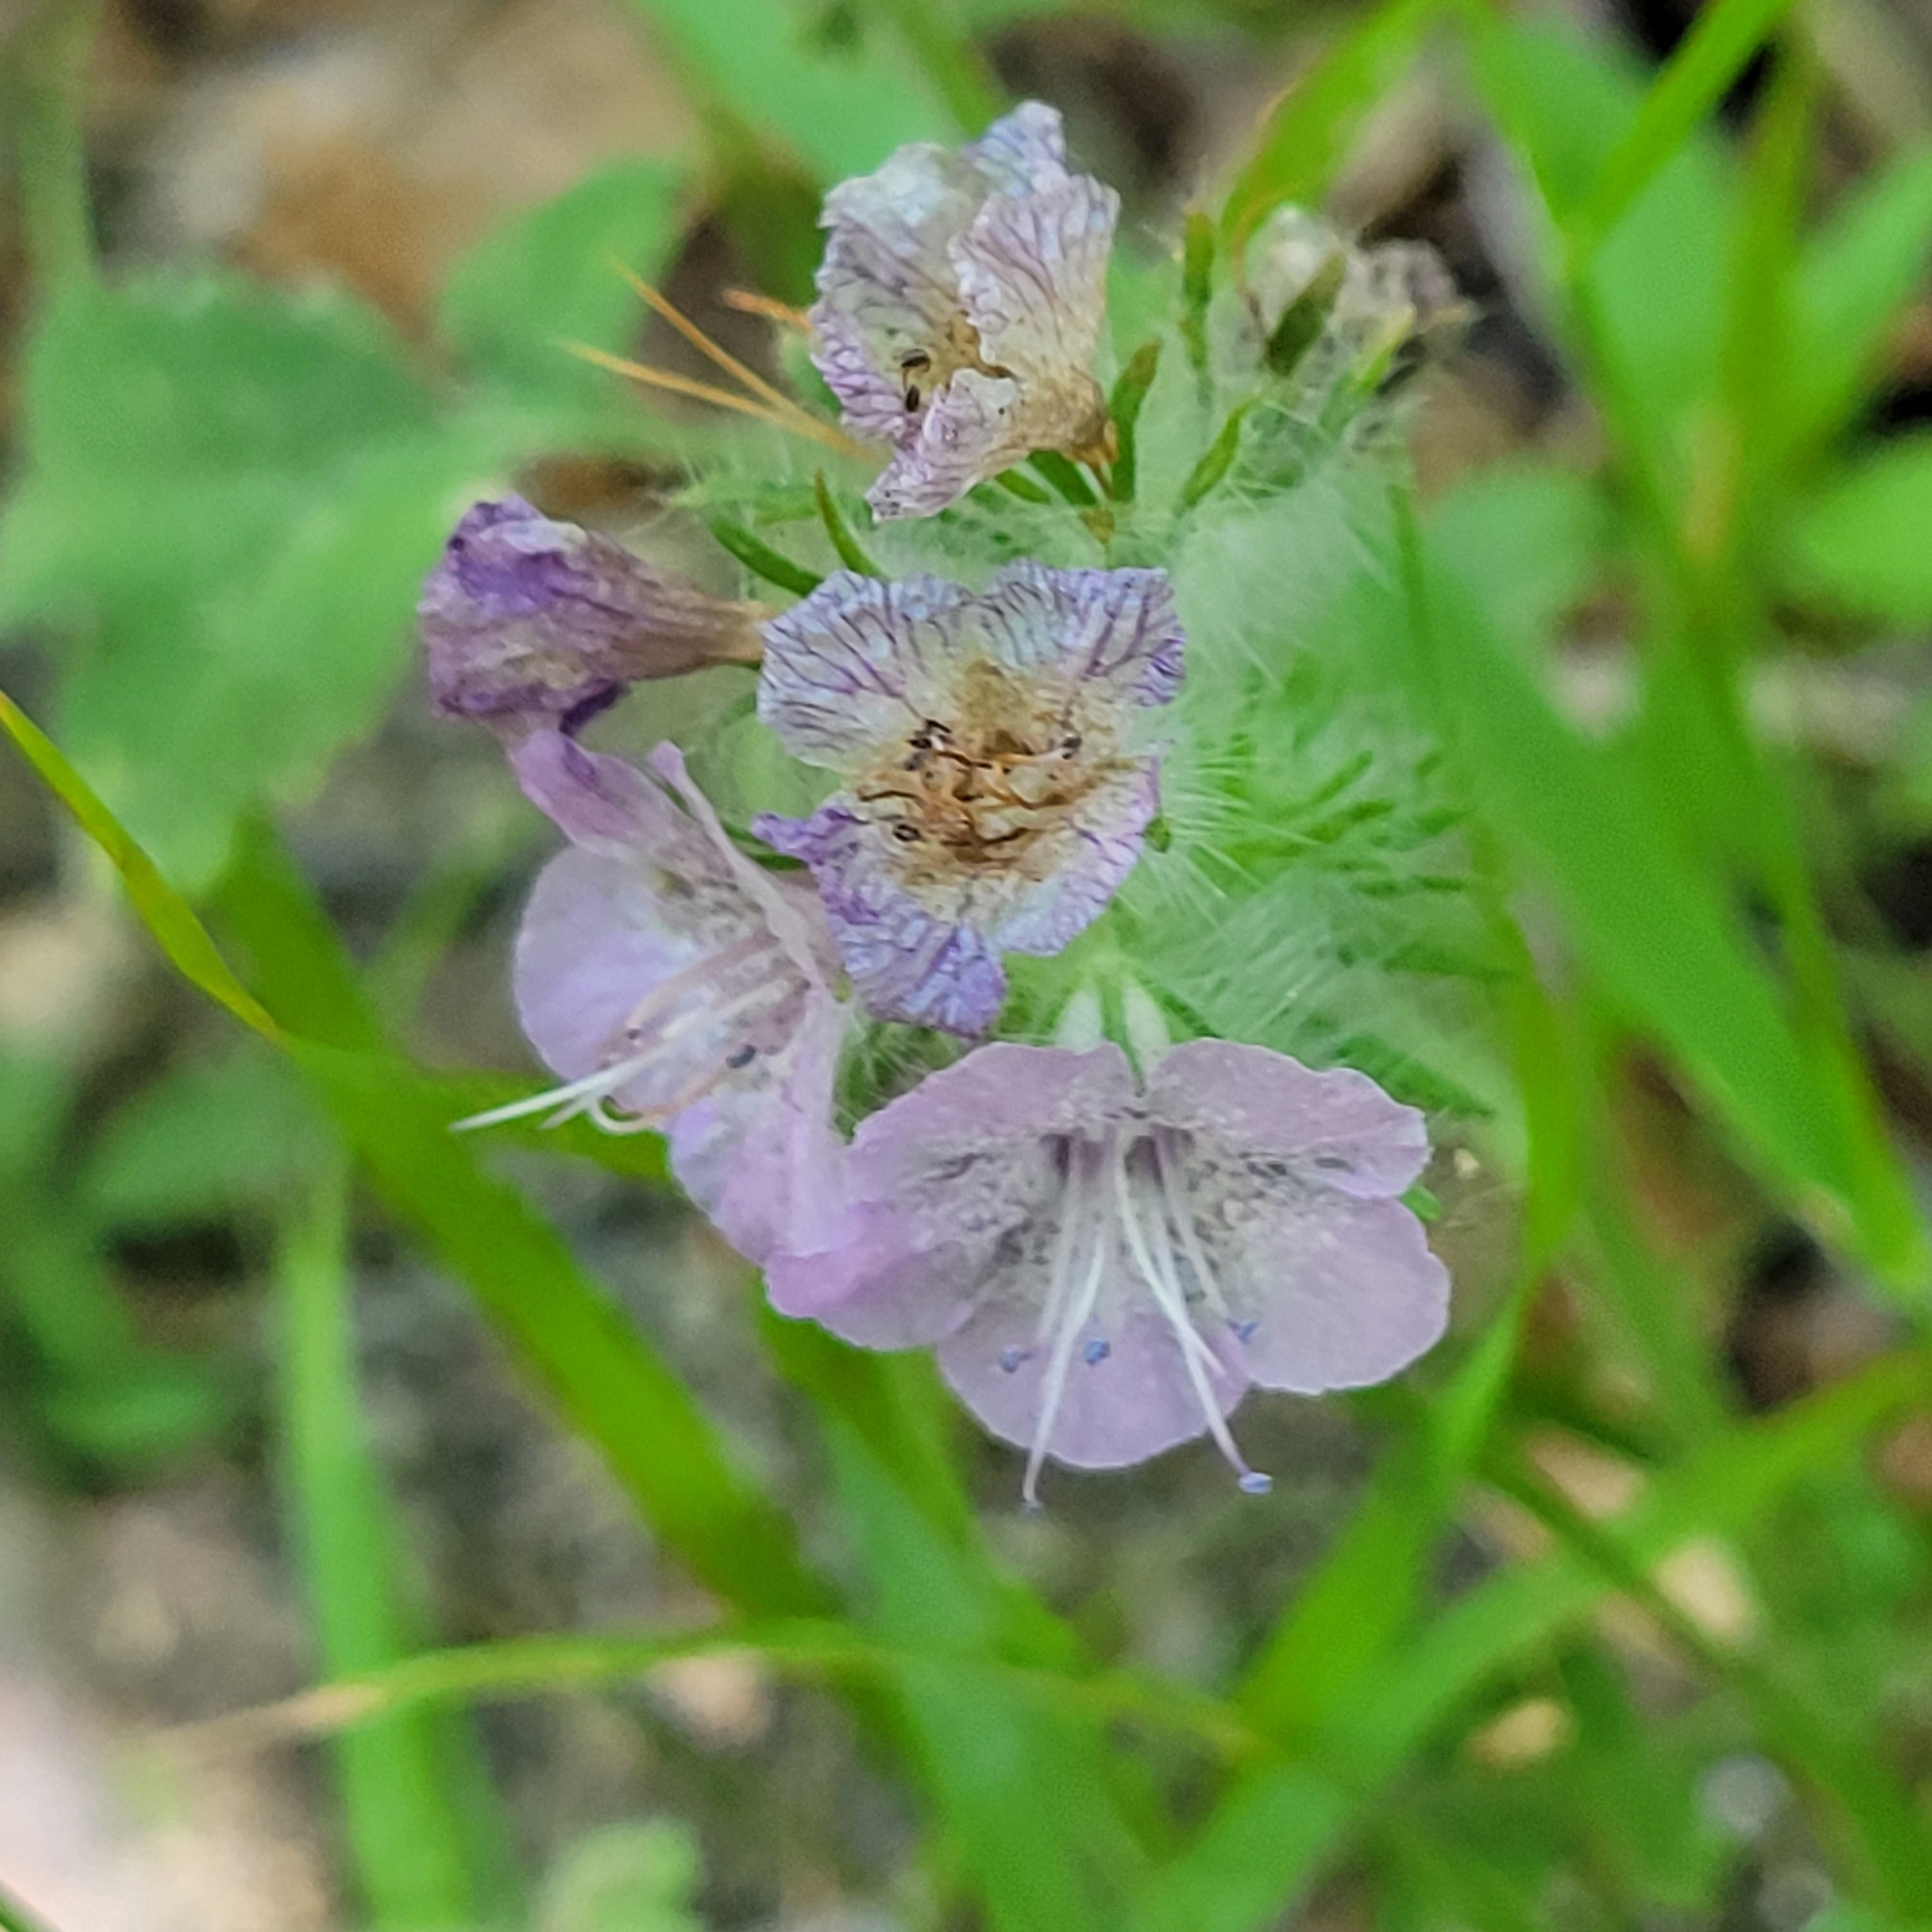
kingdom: Plantae
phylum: Tracheophyta
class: Magnoliopsida
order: Boraginales
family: Hydrophyllaceae
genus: Phacelia
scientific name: Phacelia cicutaria
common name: Caterpillar phacelia
